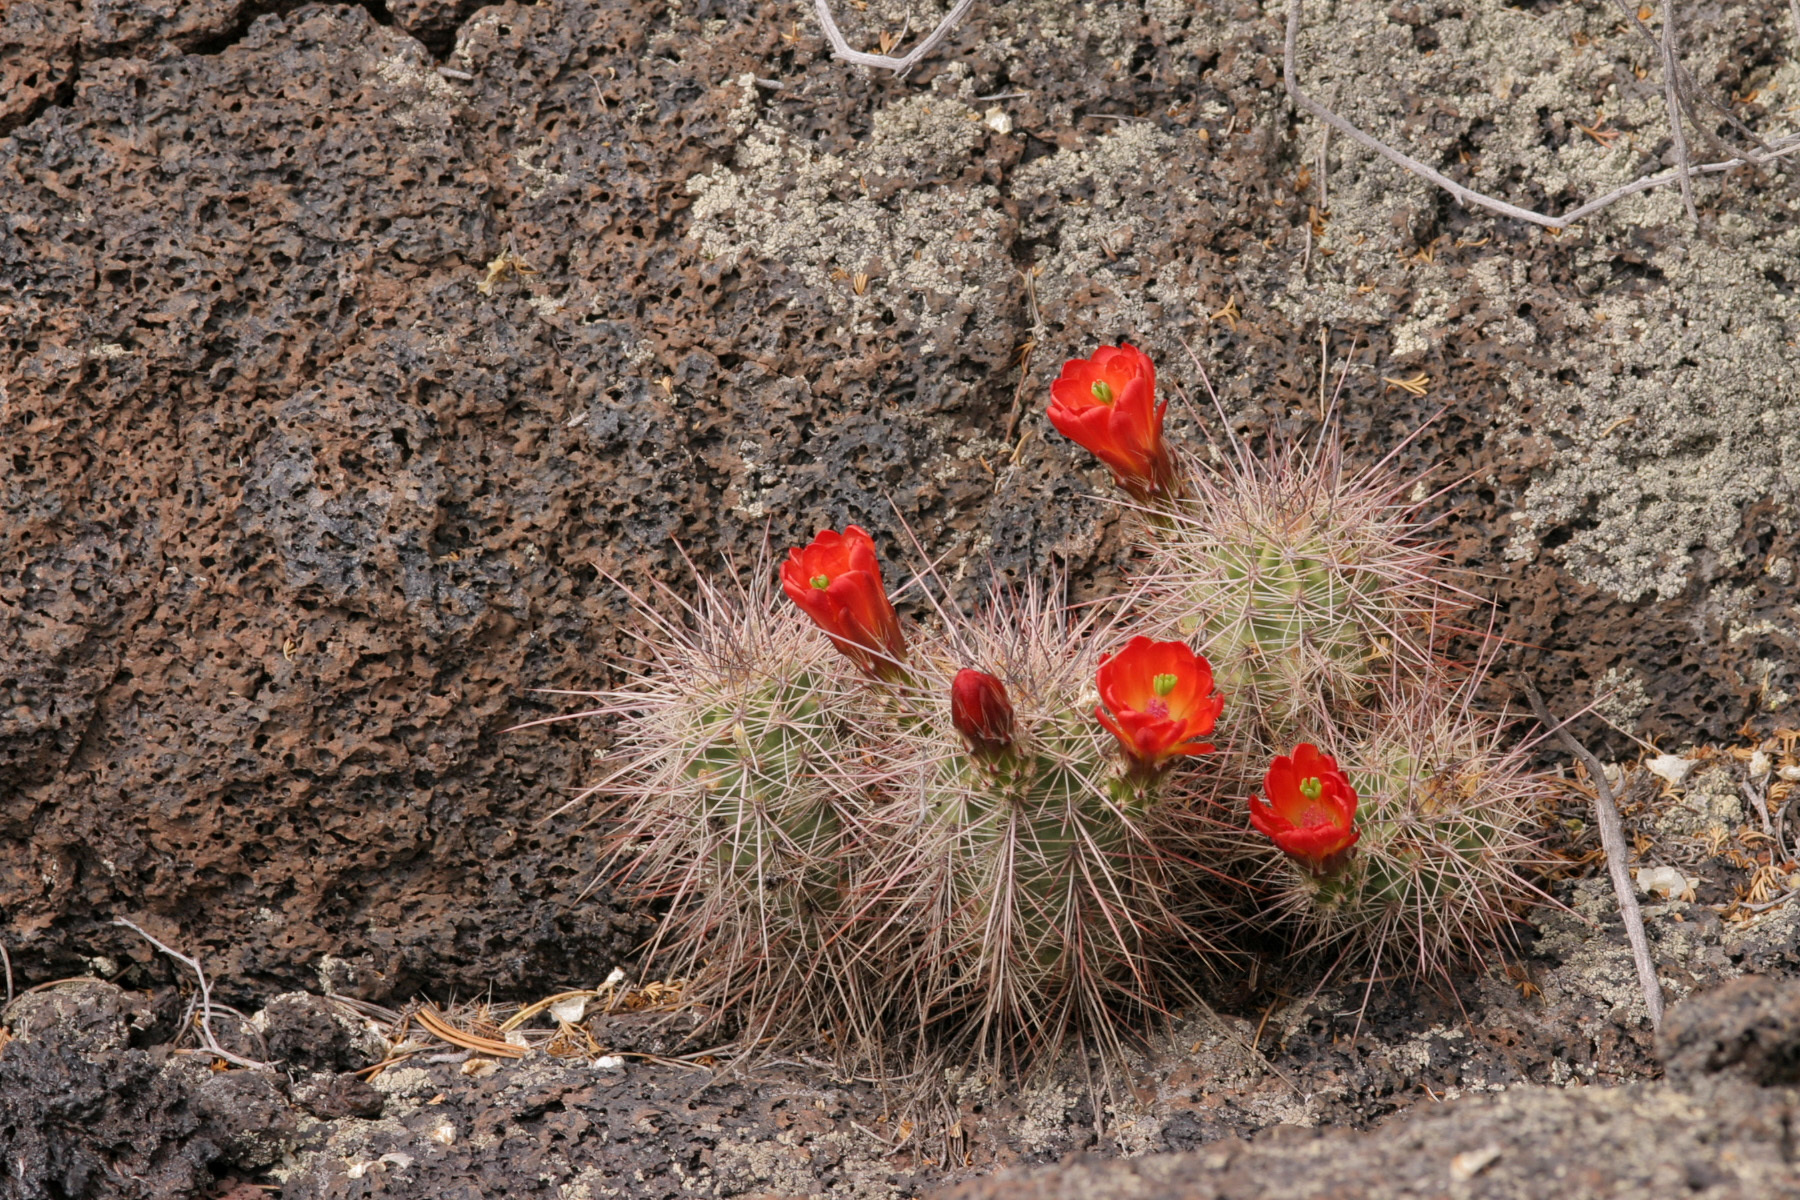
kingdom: Plantae
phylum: Tracheophyta
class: Magnoliopsida
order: Caryophyllales
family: Cactaceae
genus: Echinocereus
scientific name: Echinocereus coccineus
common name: Scarlet hedgehog cactus
